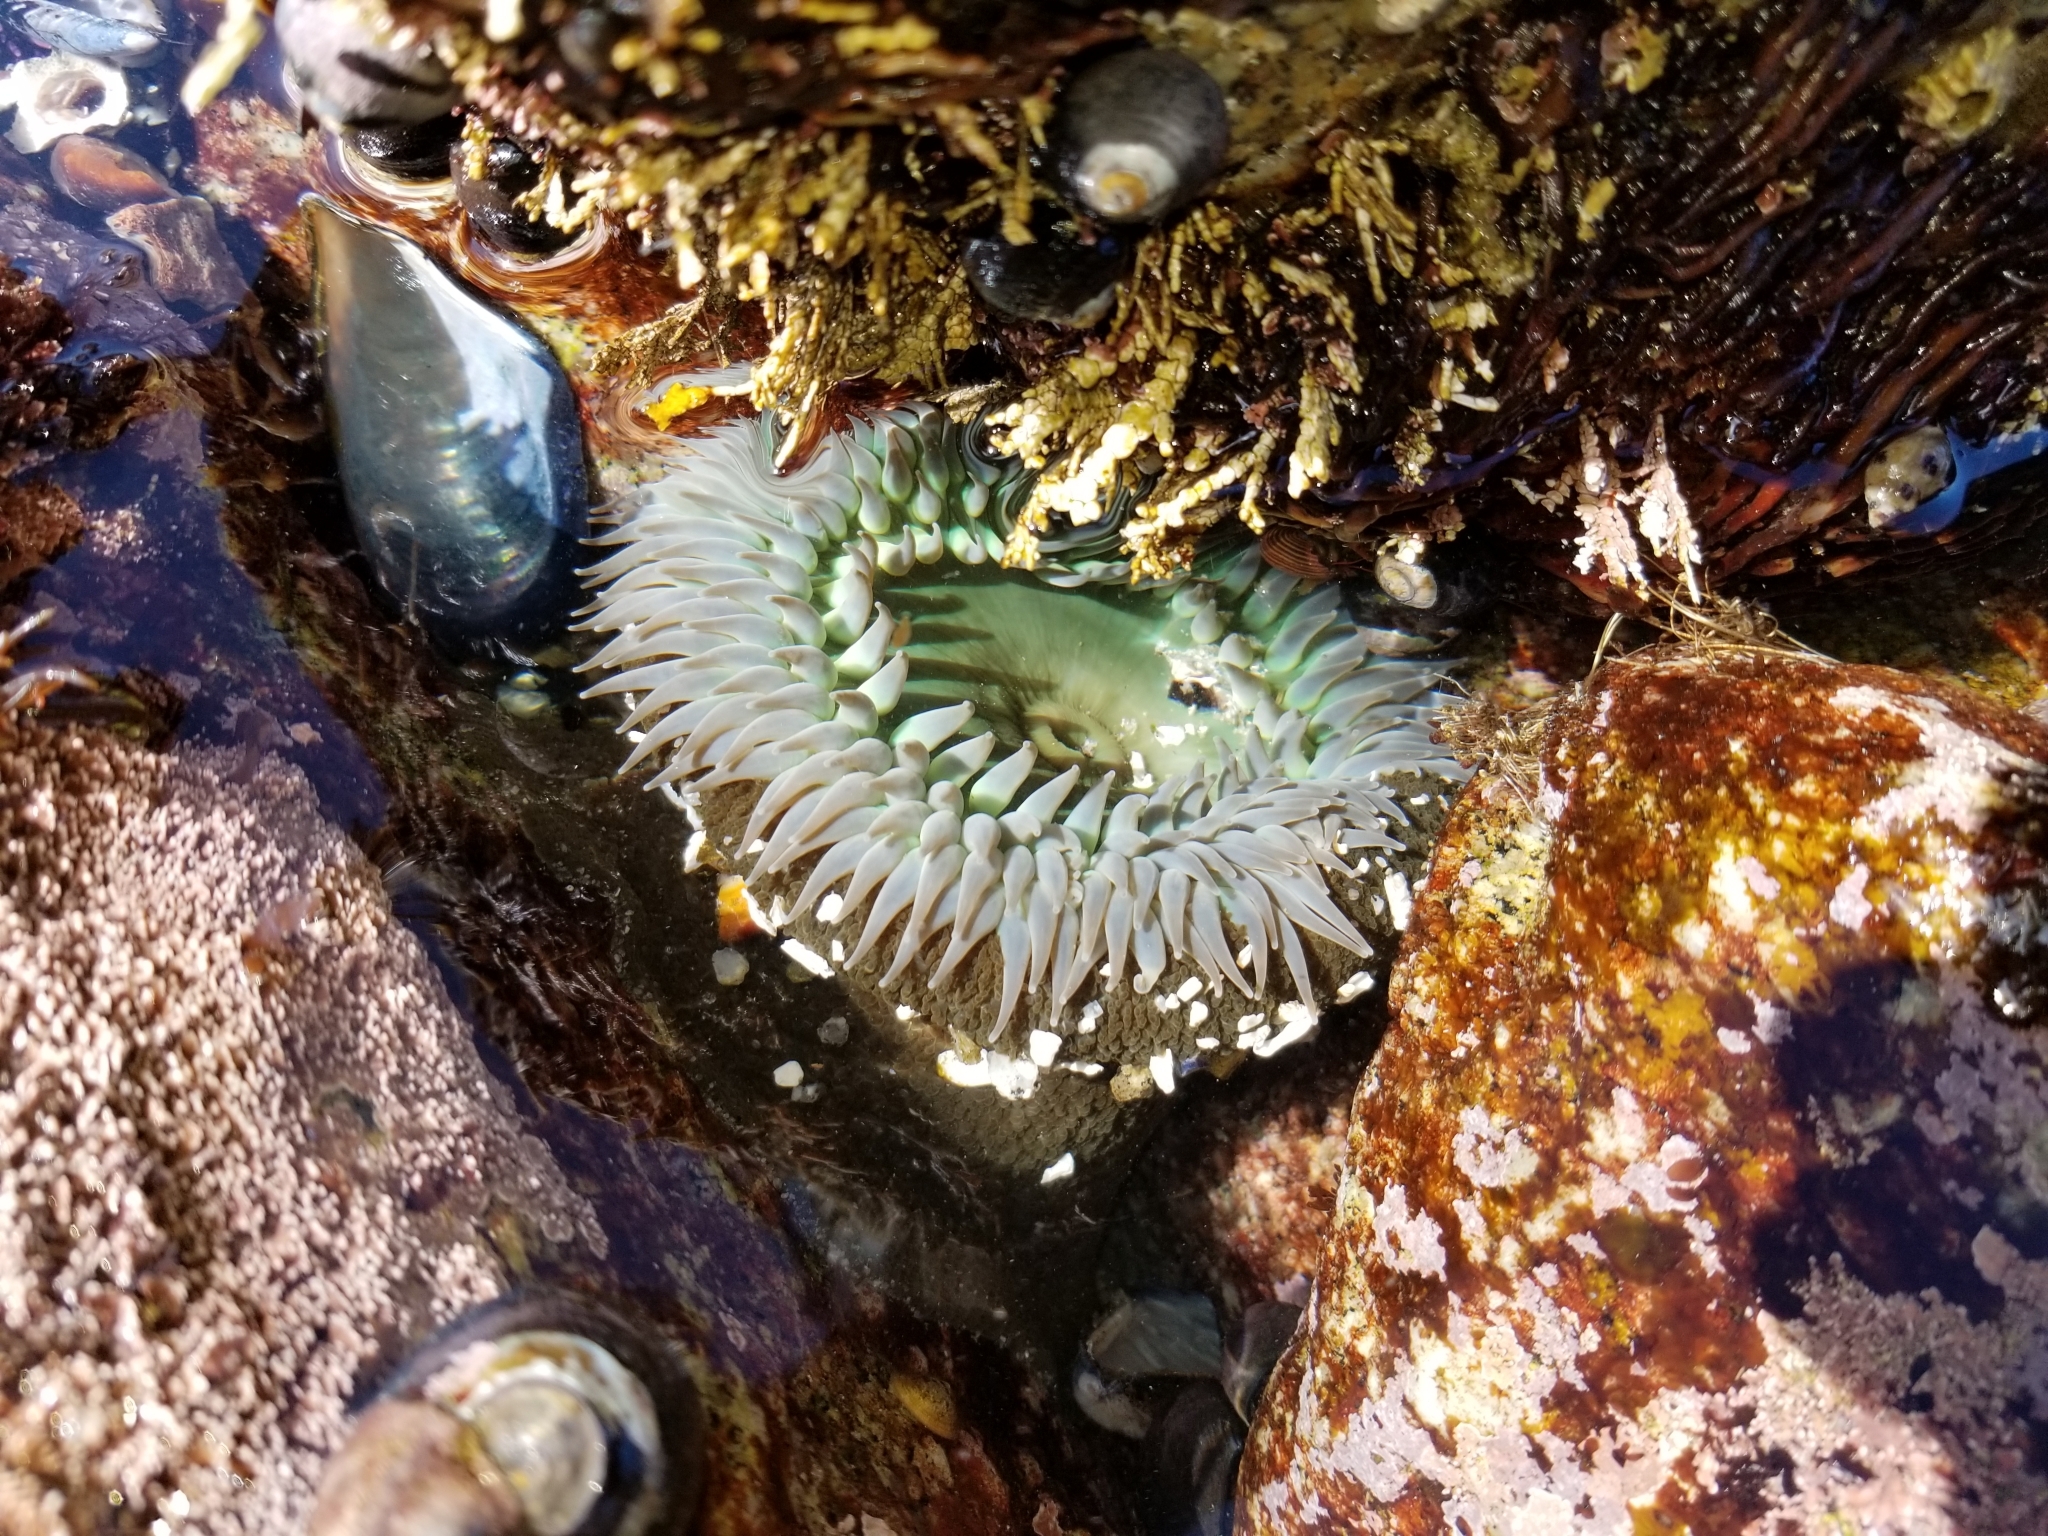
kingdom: Animalia
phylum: Cnidaria
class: Anthozoa
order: Actiniaria
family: Actiniidae
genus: Anthopleura
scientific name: Anthopleura xanthogrammica
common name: Giant green anemone
